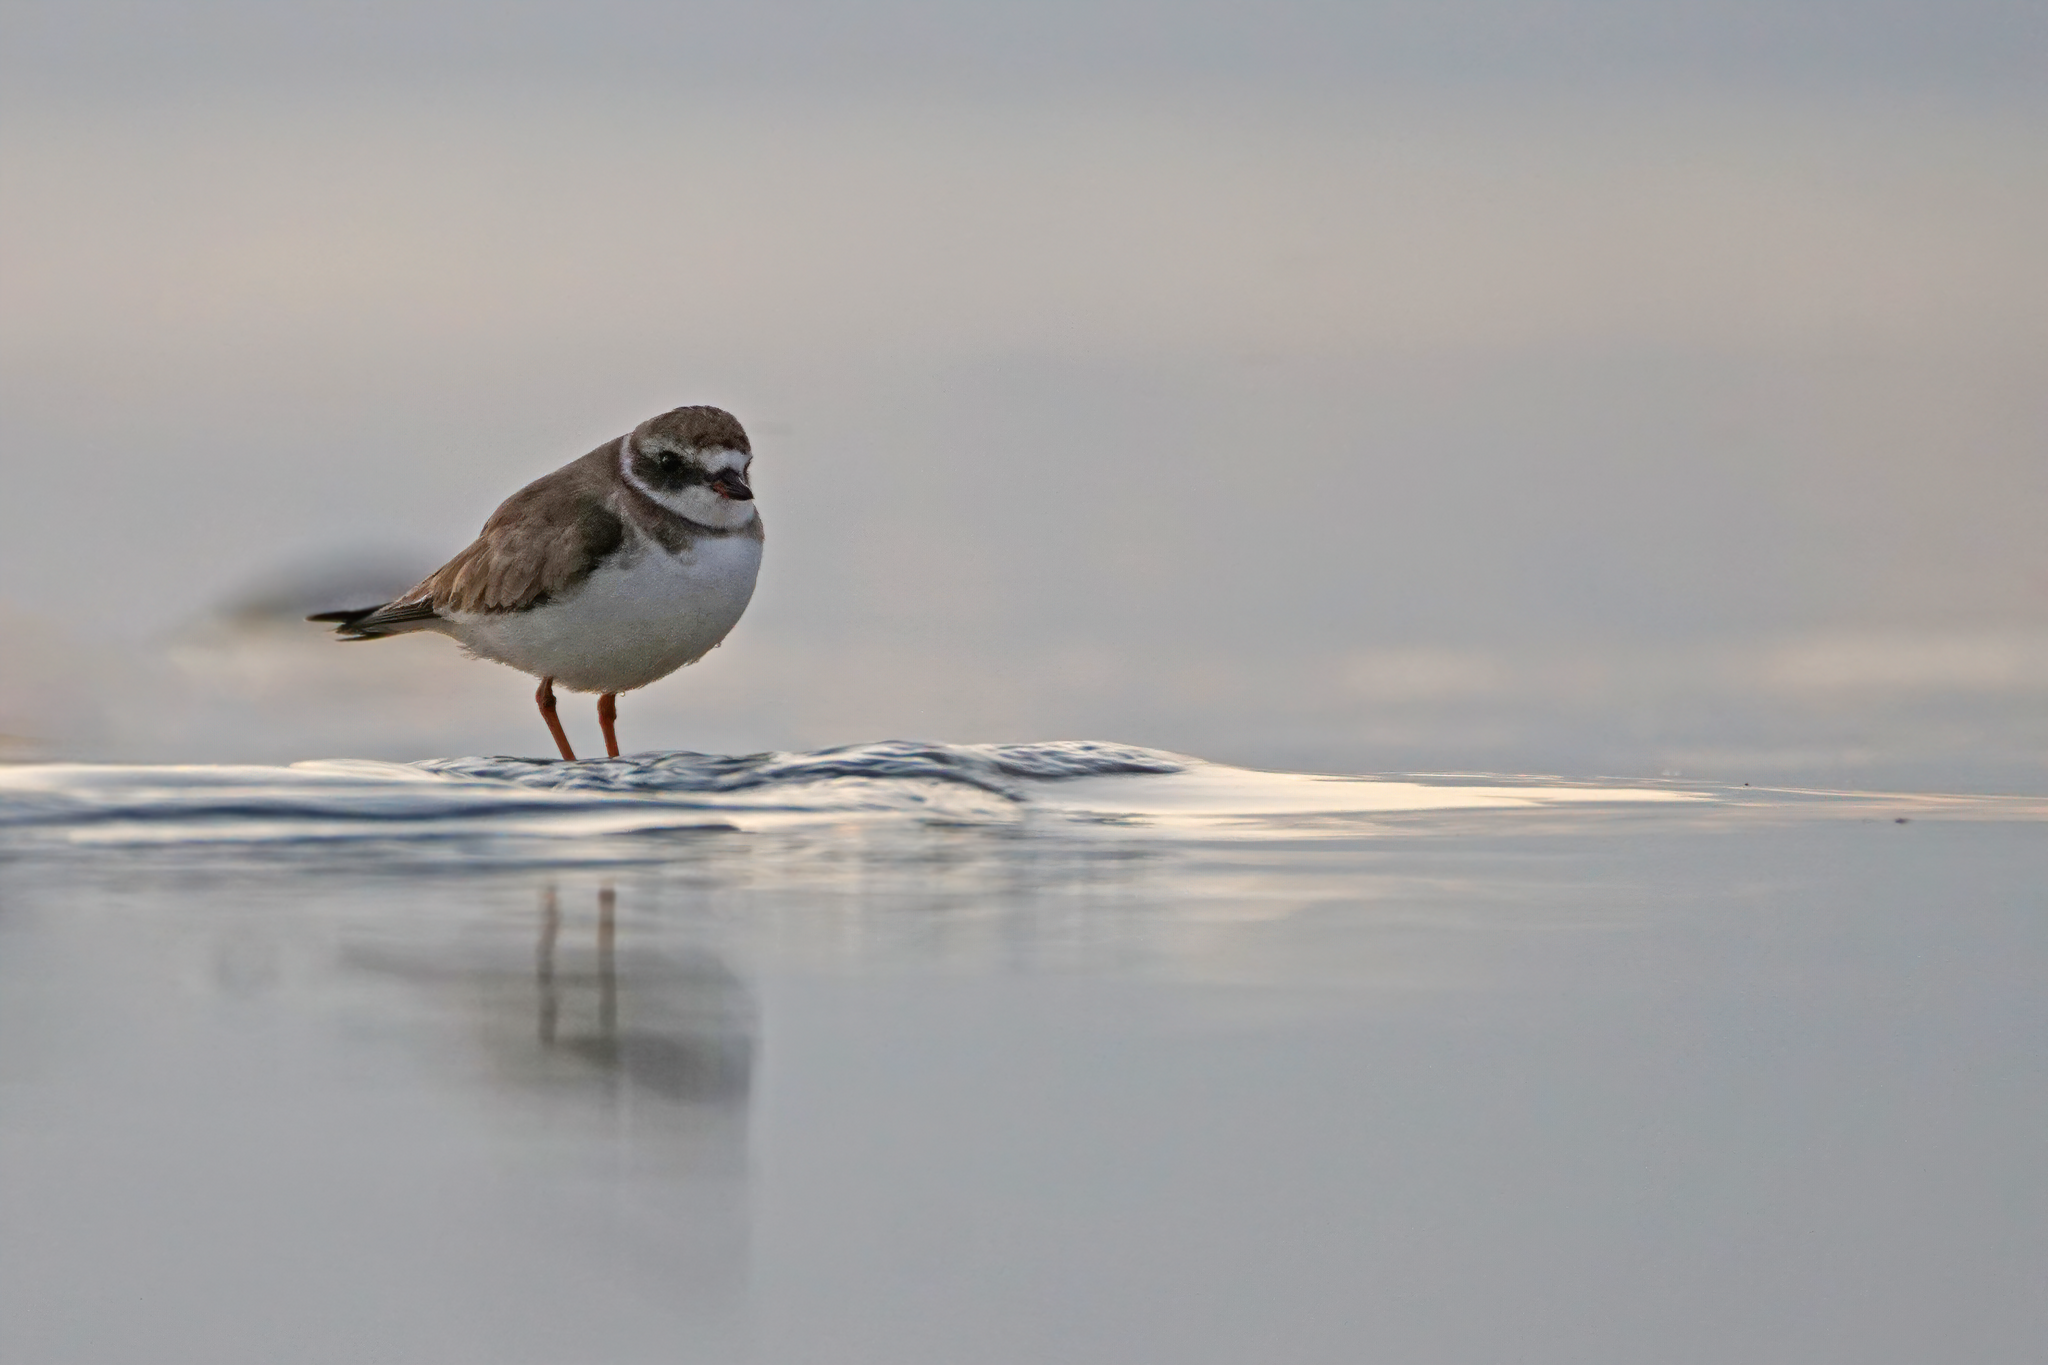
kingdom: Animalia
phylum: Chordata
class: Aves
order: Charadriiformes
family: Charadriidae
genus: Charadrius
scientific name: Charadrius semipalmatus
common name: Semipalmated plover
